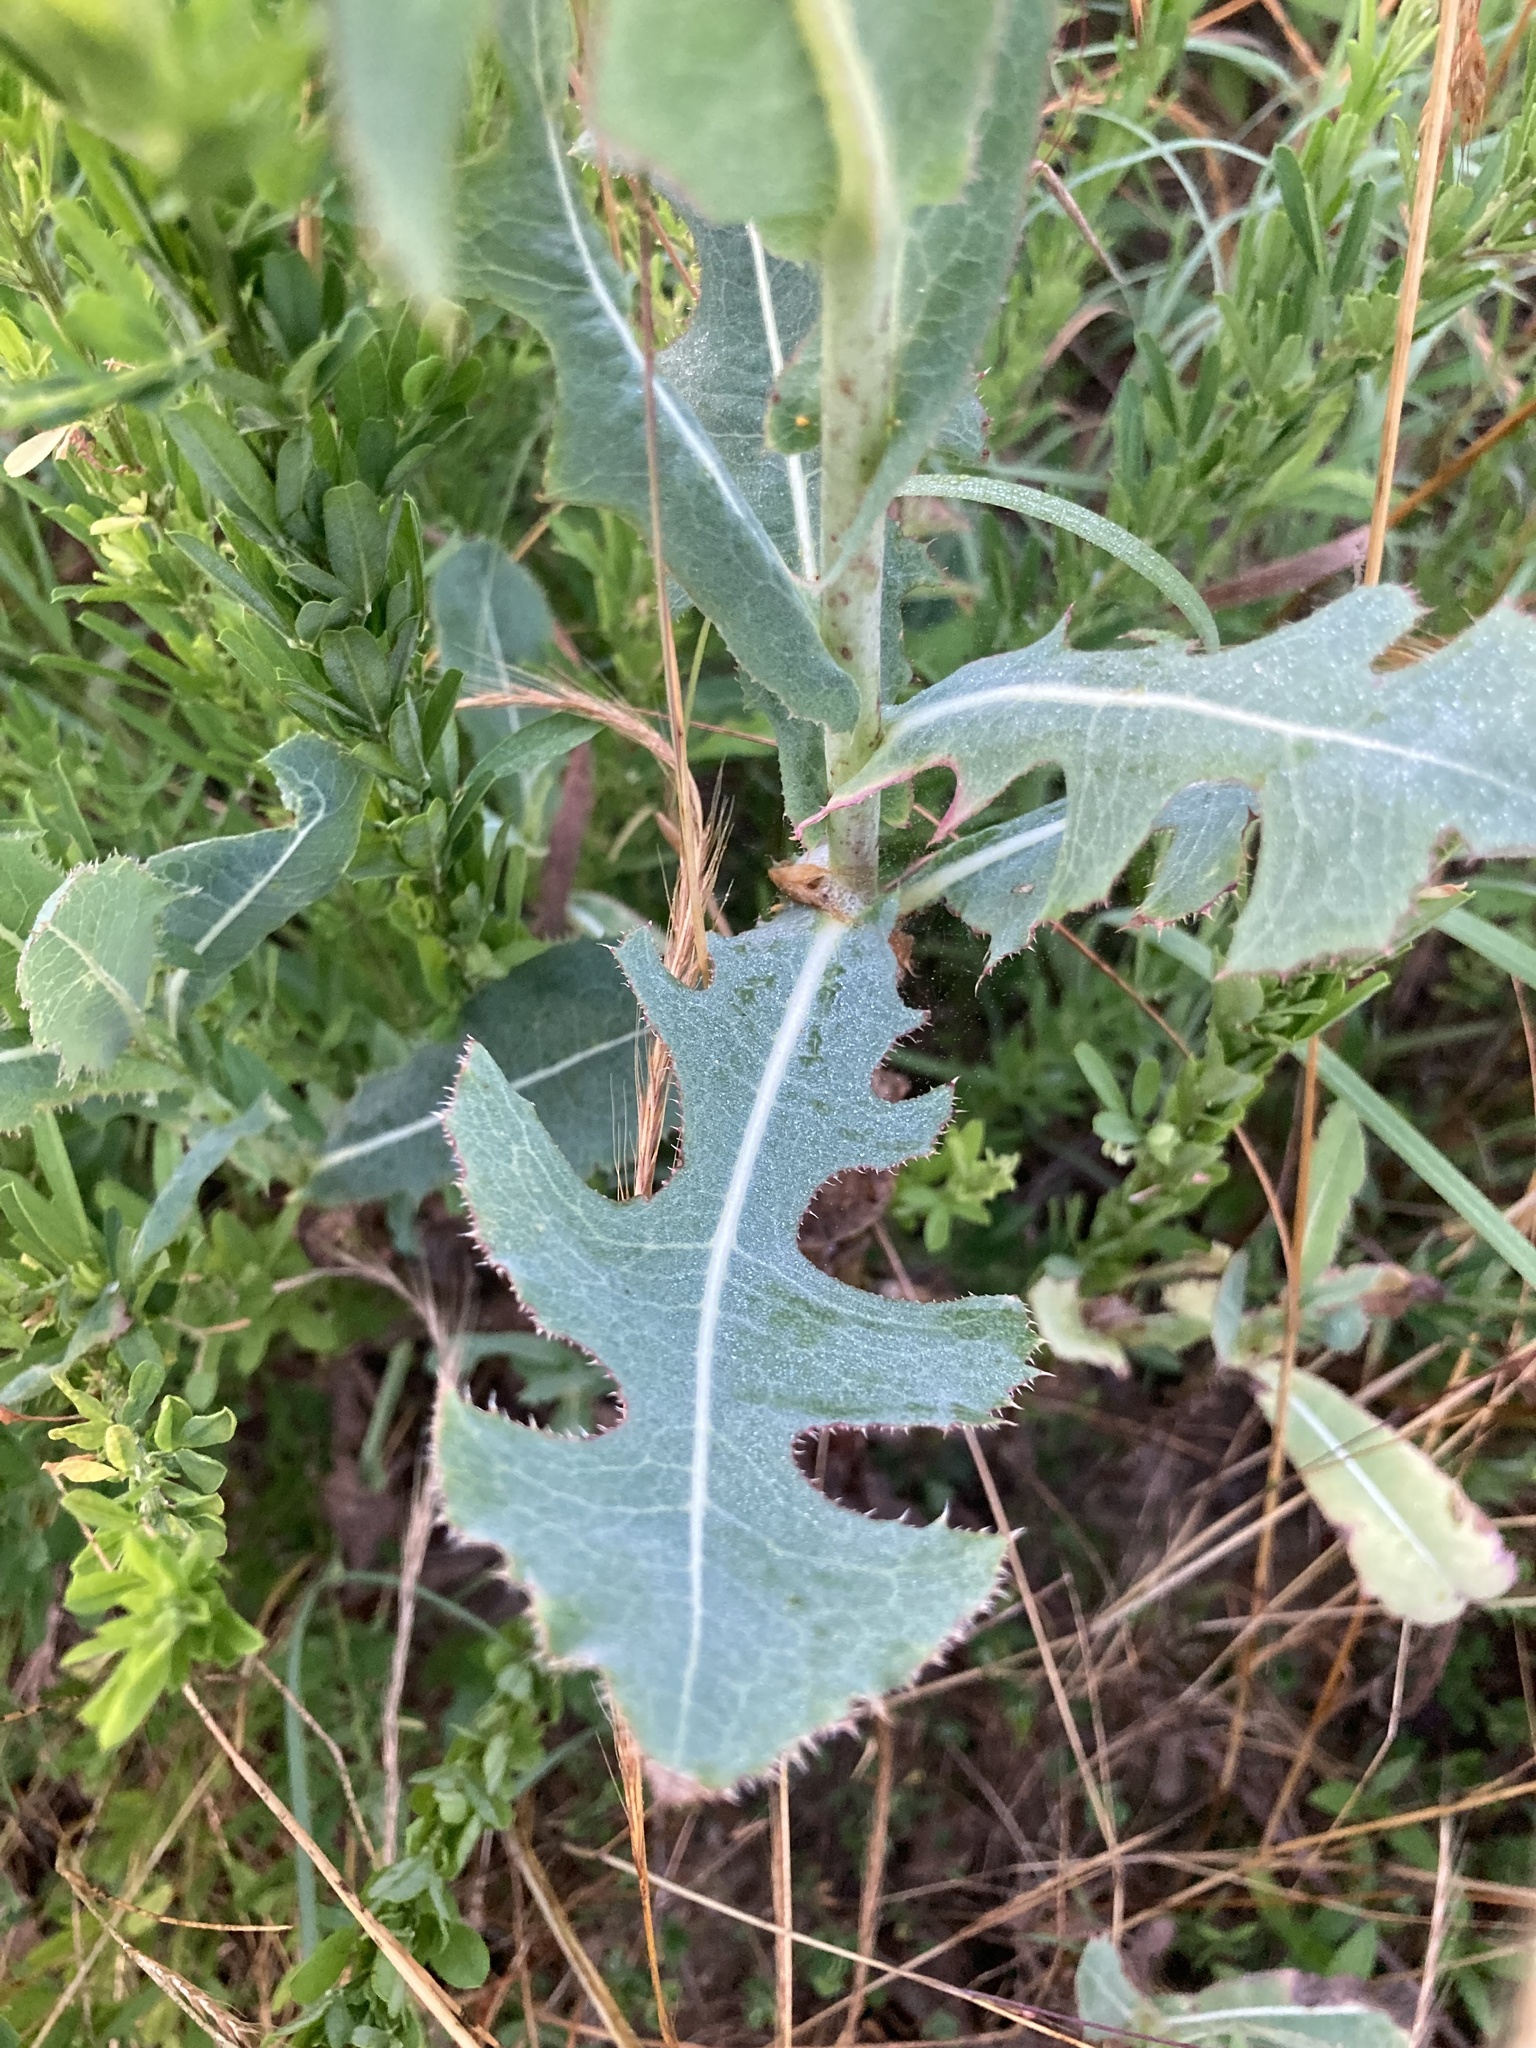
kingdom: Plantae
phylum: Tracheophyta
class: Magnoliopsida
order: Asterales
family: Asteraceae
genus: Lactuca
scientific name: Lactuca serriola
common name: Prickly lettuce
